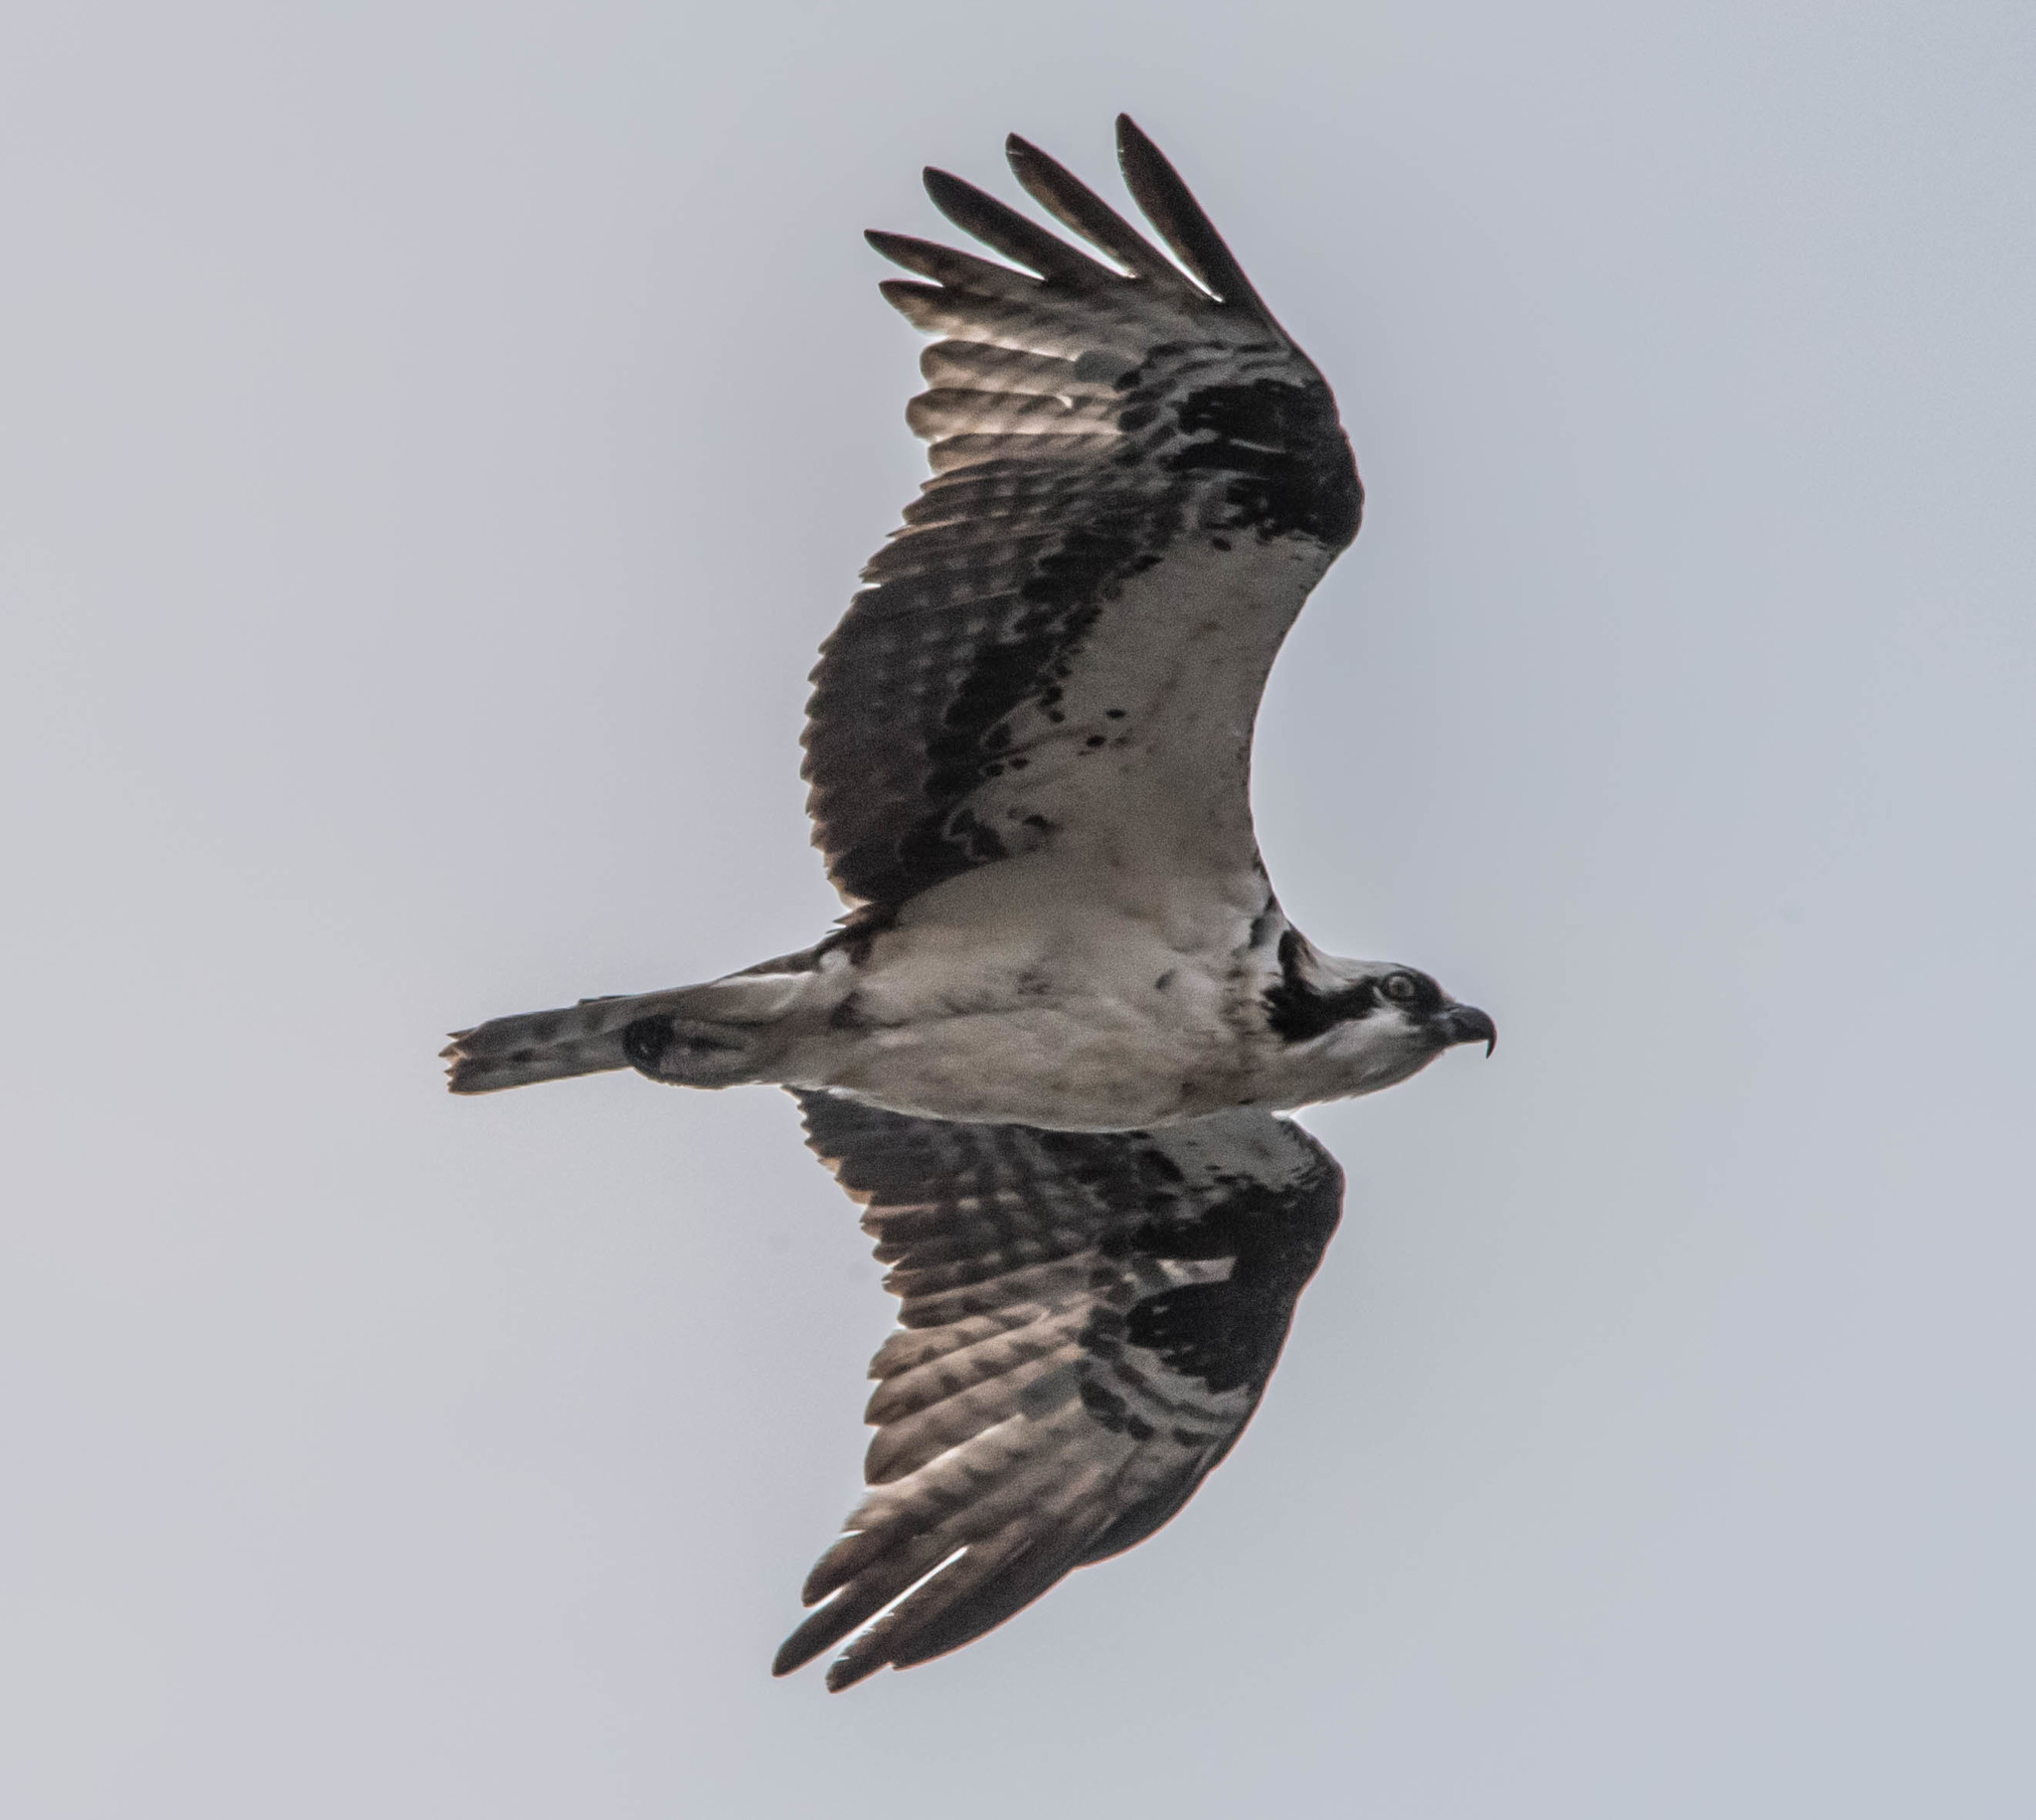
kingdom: Animalia
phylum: Chordata
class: Aves
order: Accipitriformes
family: Pandionidae
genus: Pandion
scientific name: Pandion haliaetus
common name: Osprey
